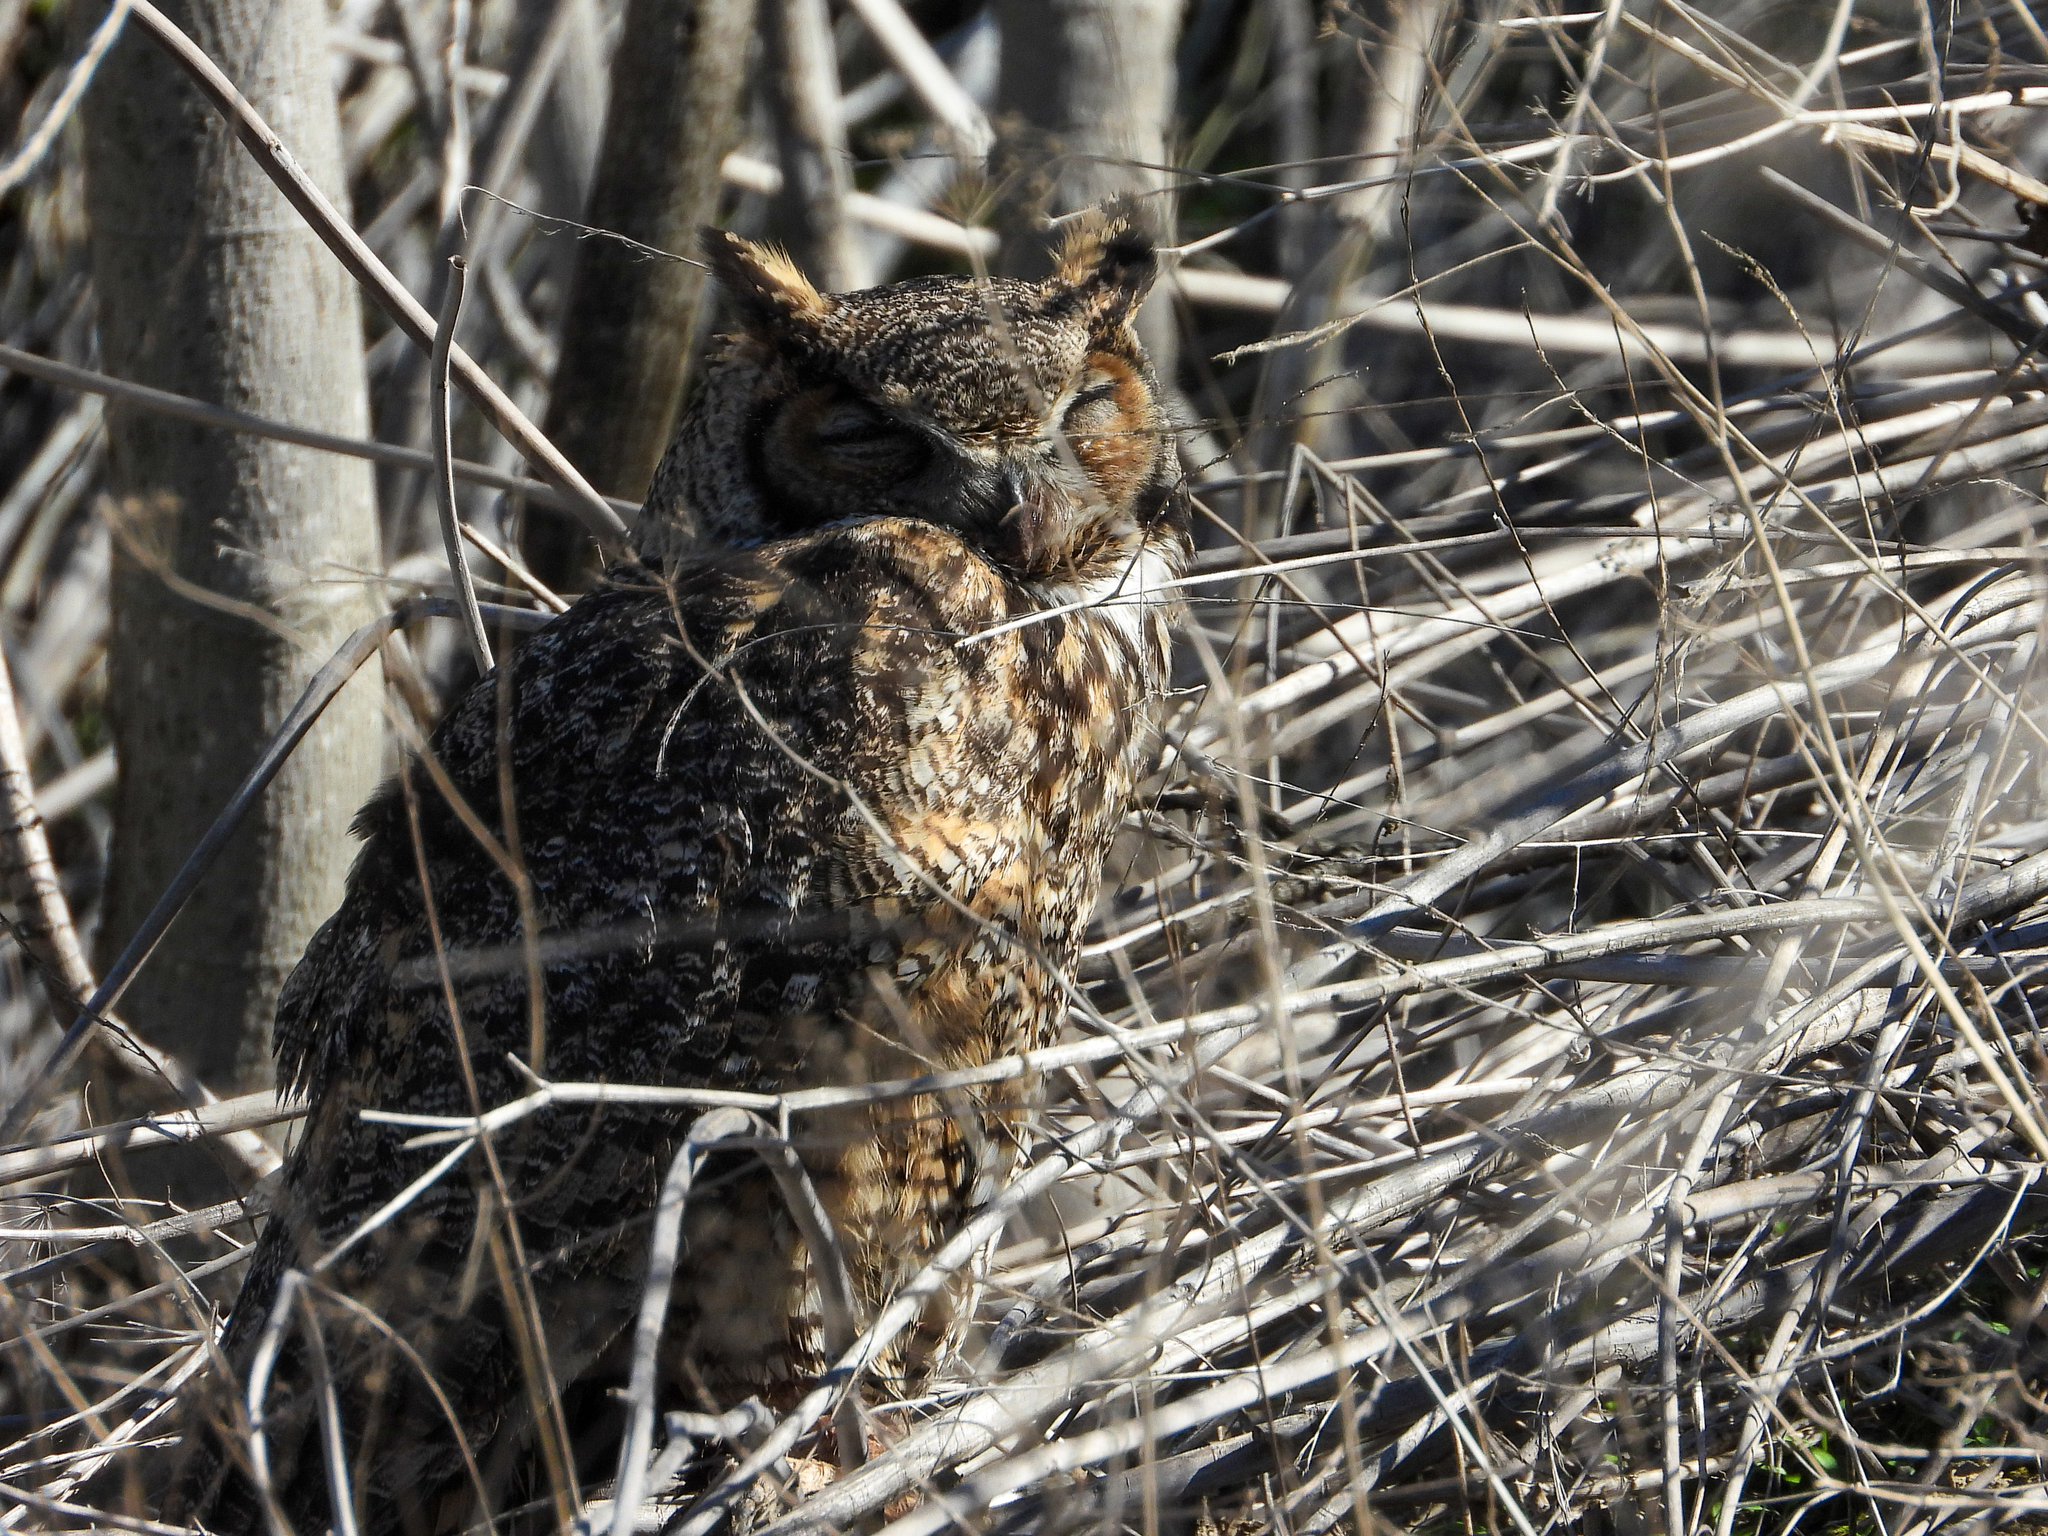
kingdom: Animalia
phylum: Chordata
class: Aves
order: Strigiformes
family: Strigidae
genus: Bubo
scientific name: Bubo virginianus
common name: Great horned owl
